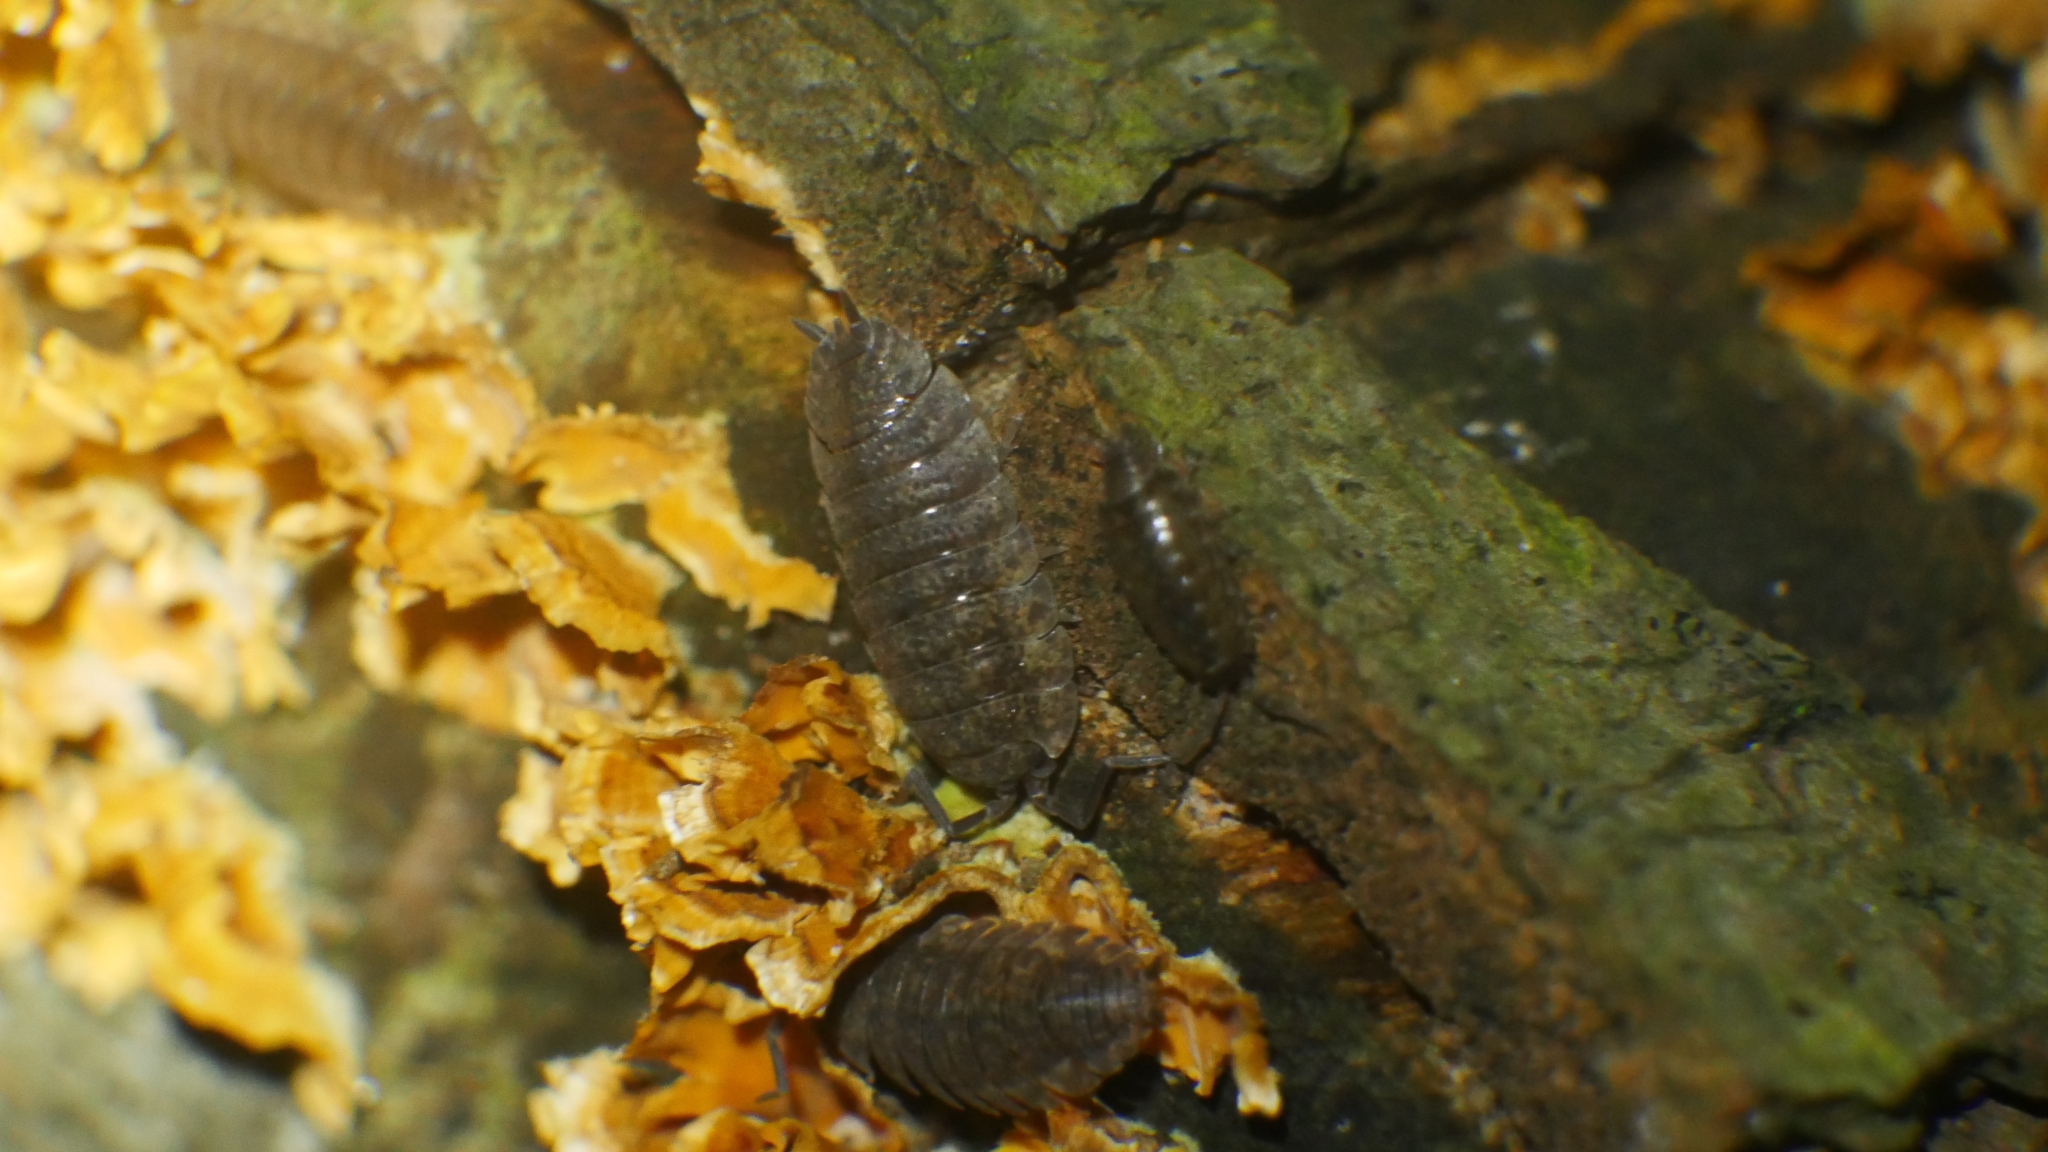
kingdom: Animalia
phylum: Arthropoda
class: Malacostraca
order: Isopoda
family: Porcellionidae
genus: Porcellio
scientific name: Porcellio scaber
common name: Common rough woodlouse
